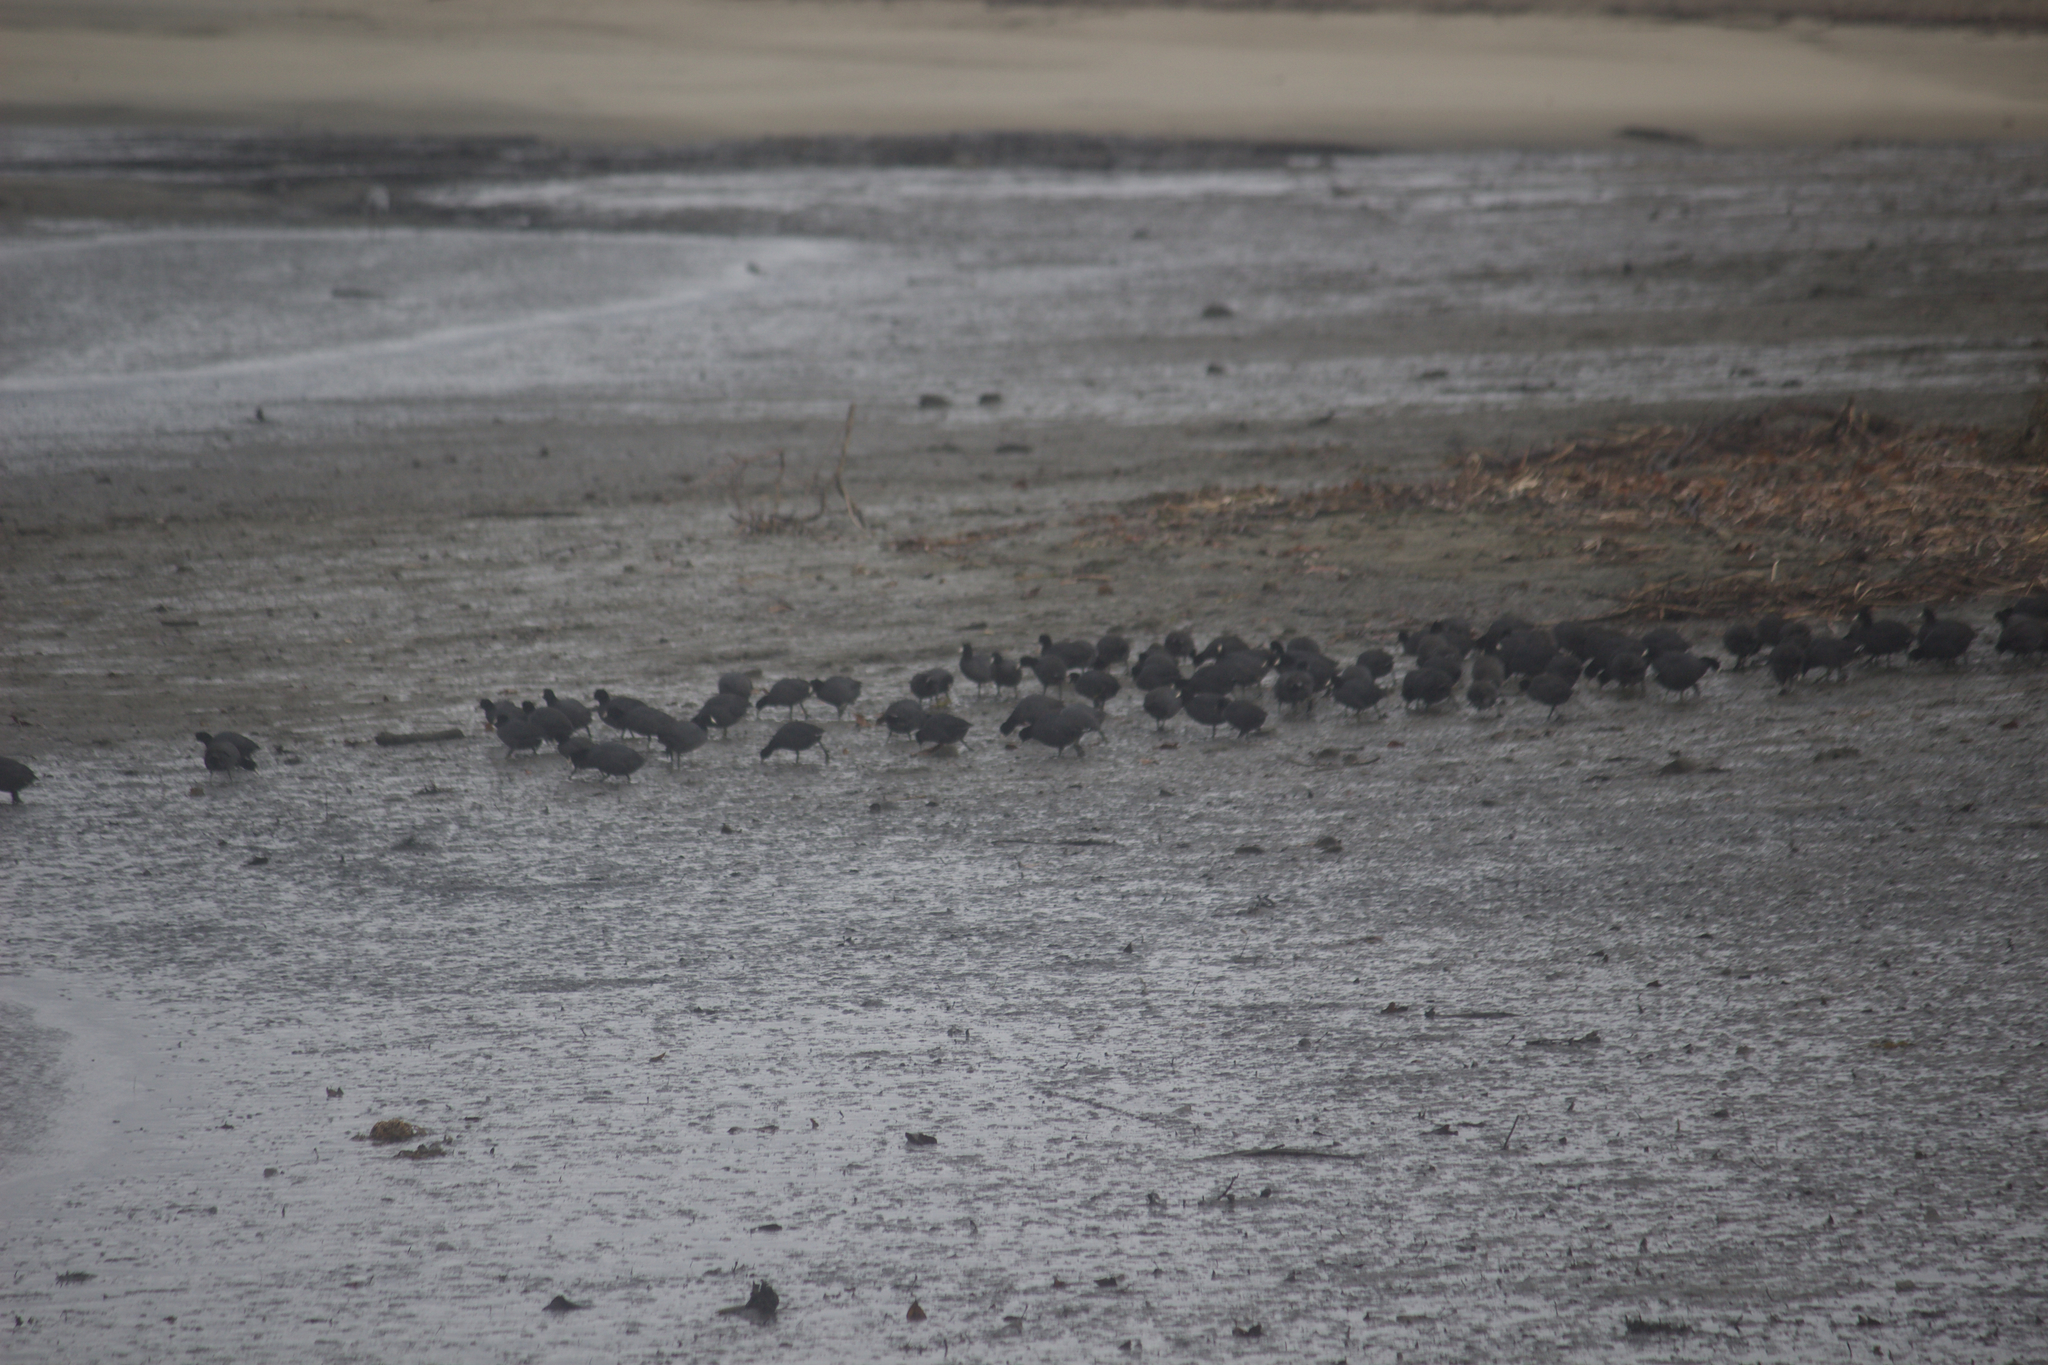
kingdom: Animalia
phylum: Chordata
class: Aves
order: Gruiformes
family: Rallidae
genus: Fulica
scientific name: Fulica americana
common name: American coot
